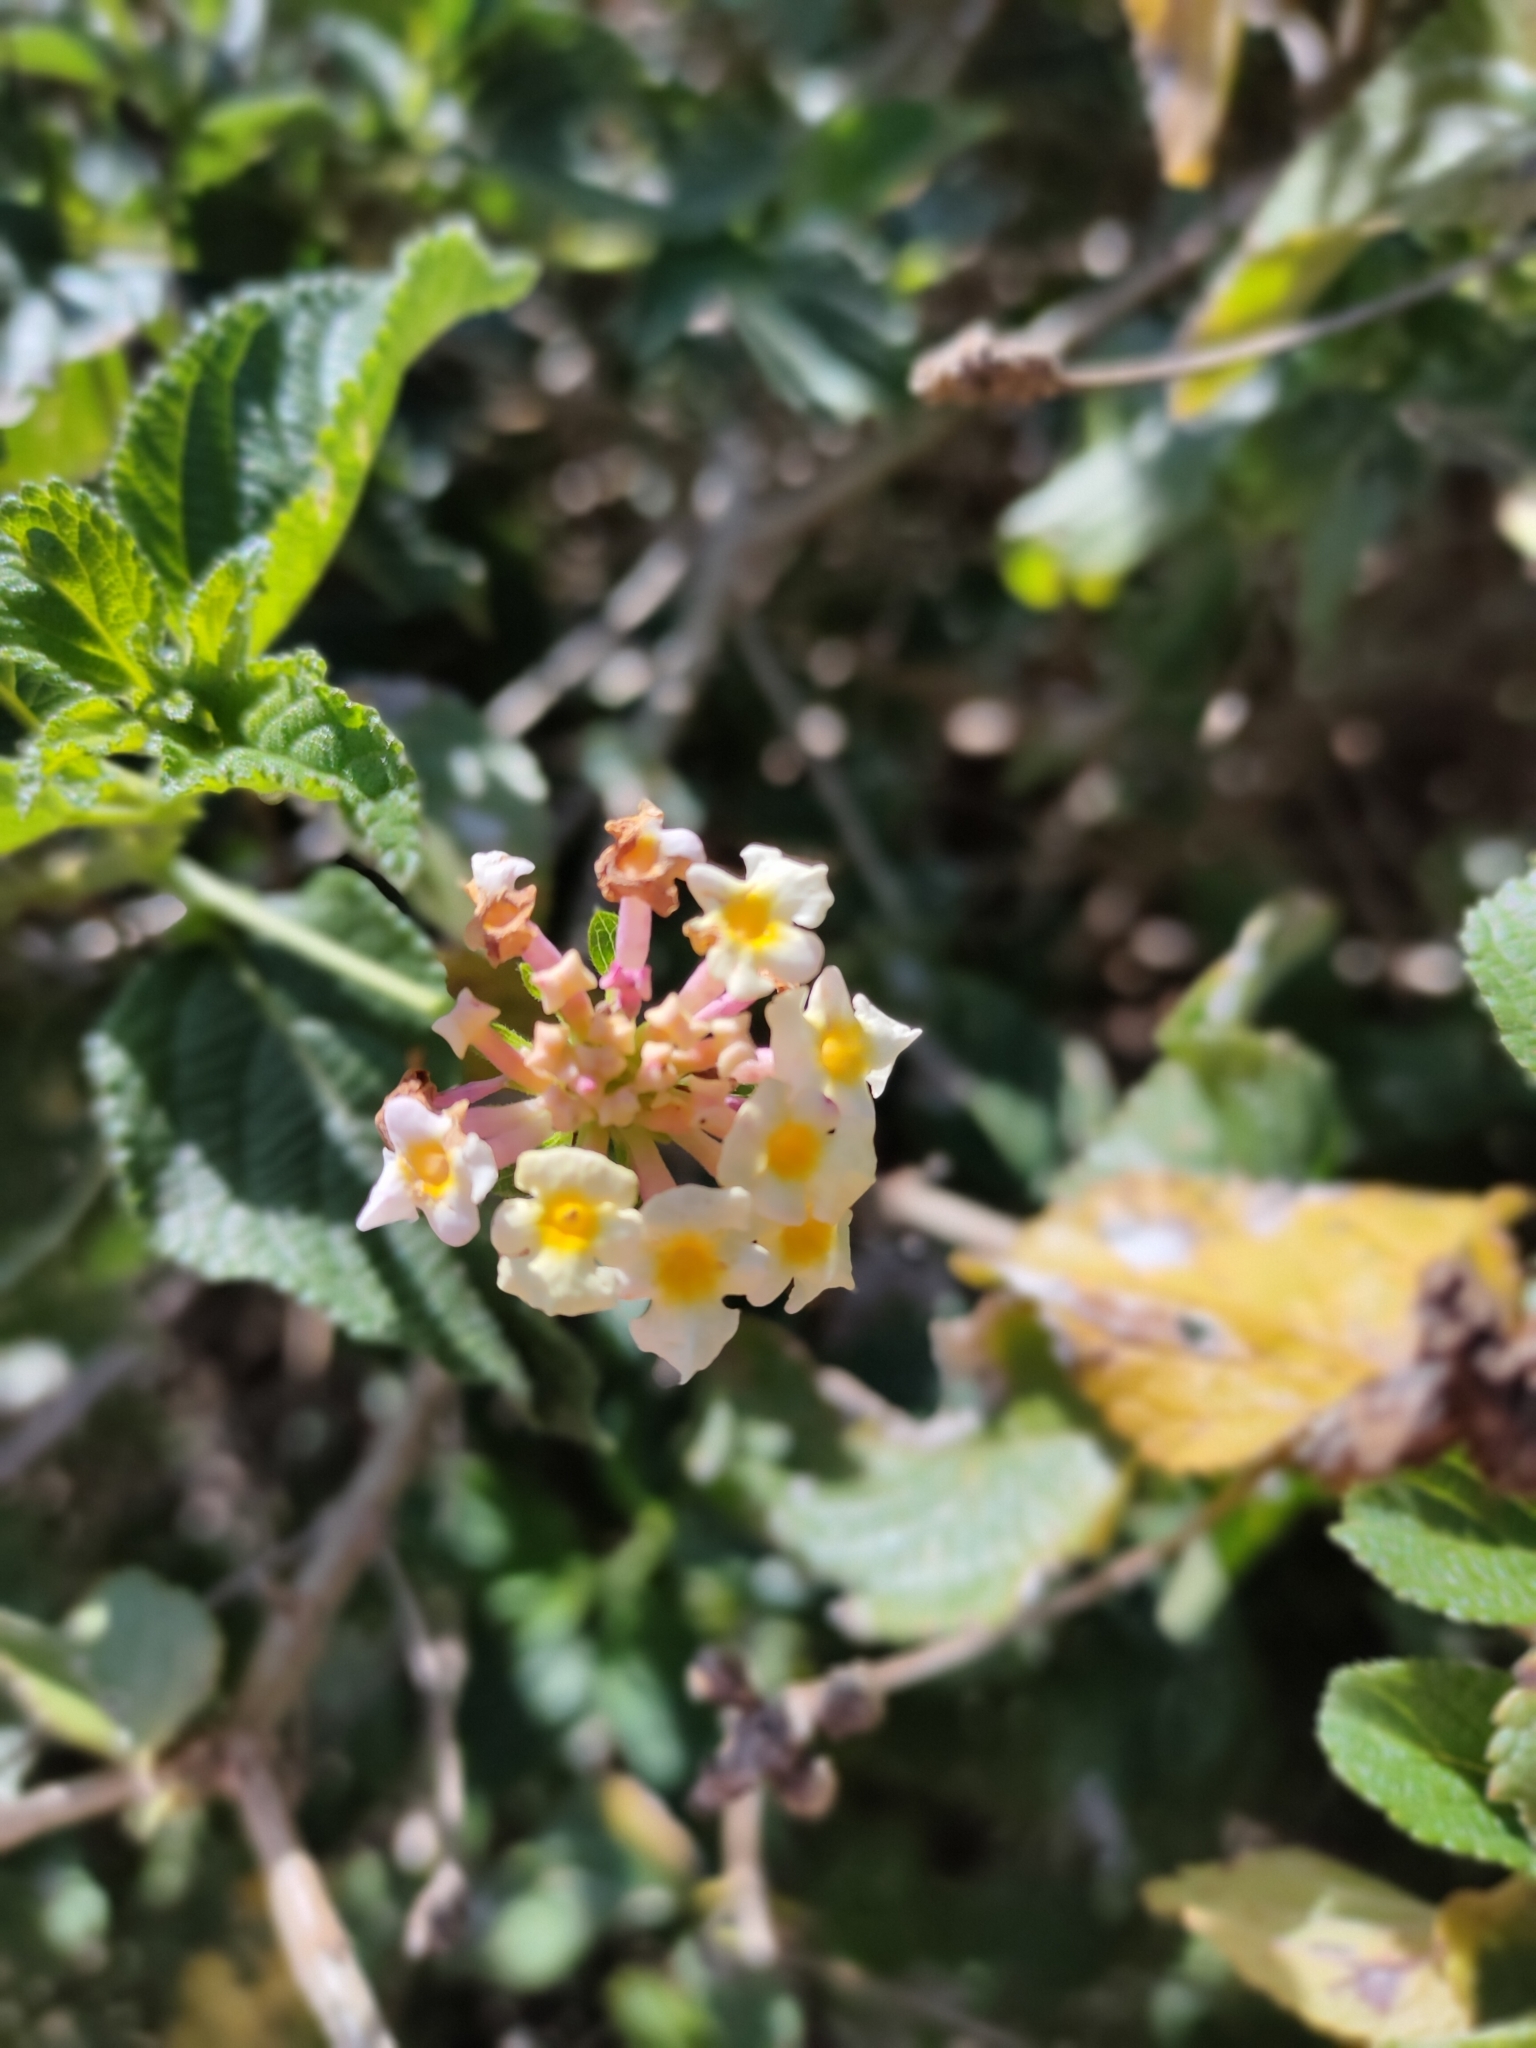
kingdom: Plantae
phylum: Tracheophyta
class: Magnoliopsida
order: Lamiales
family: Verbenaceae
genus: Lantana
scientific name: Lantana camara
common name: Lantana
